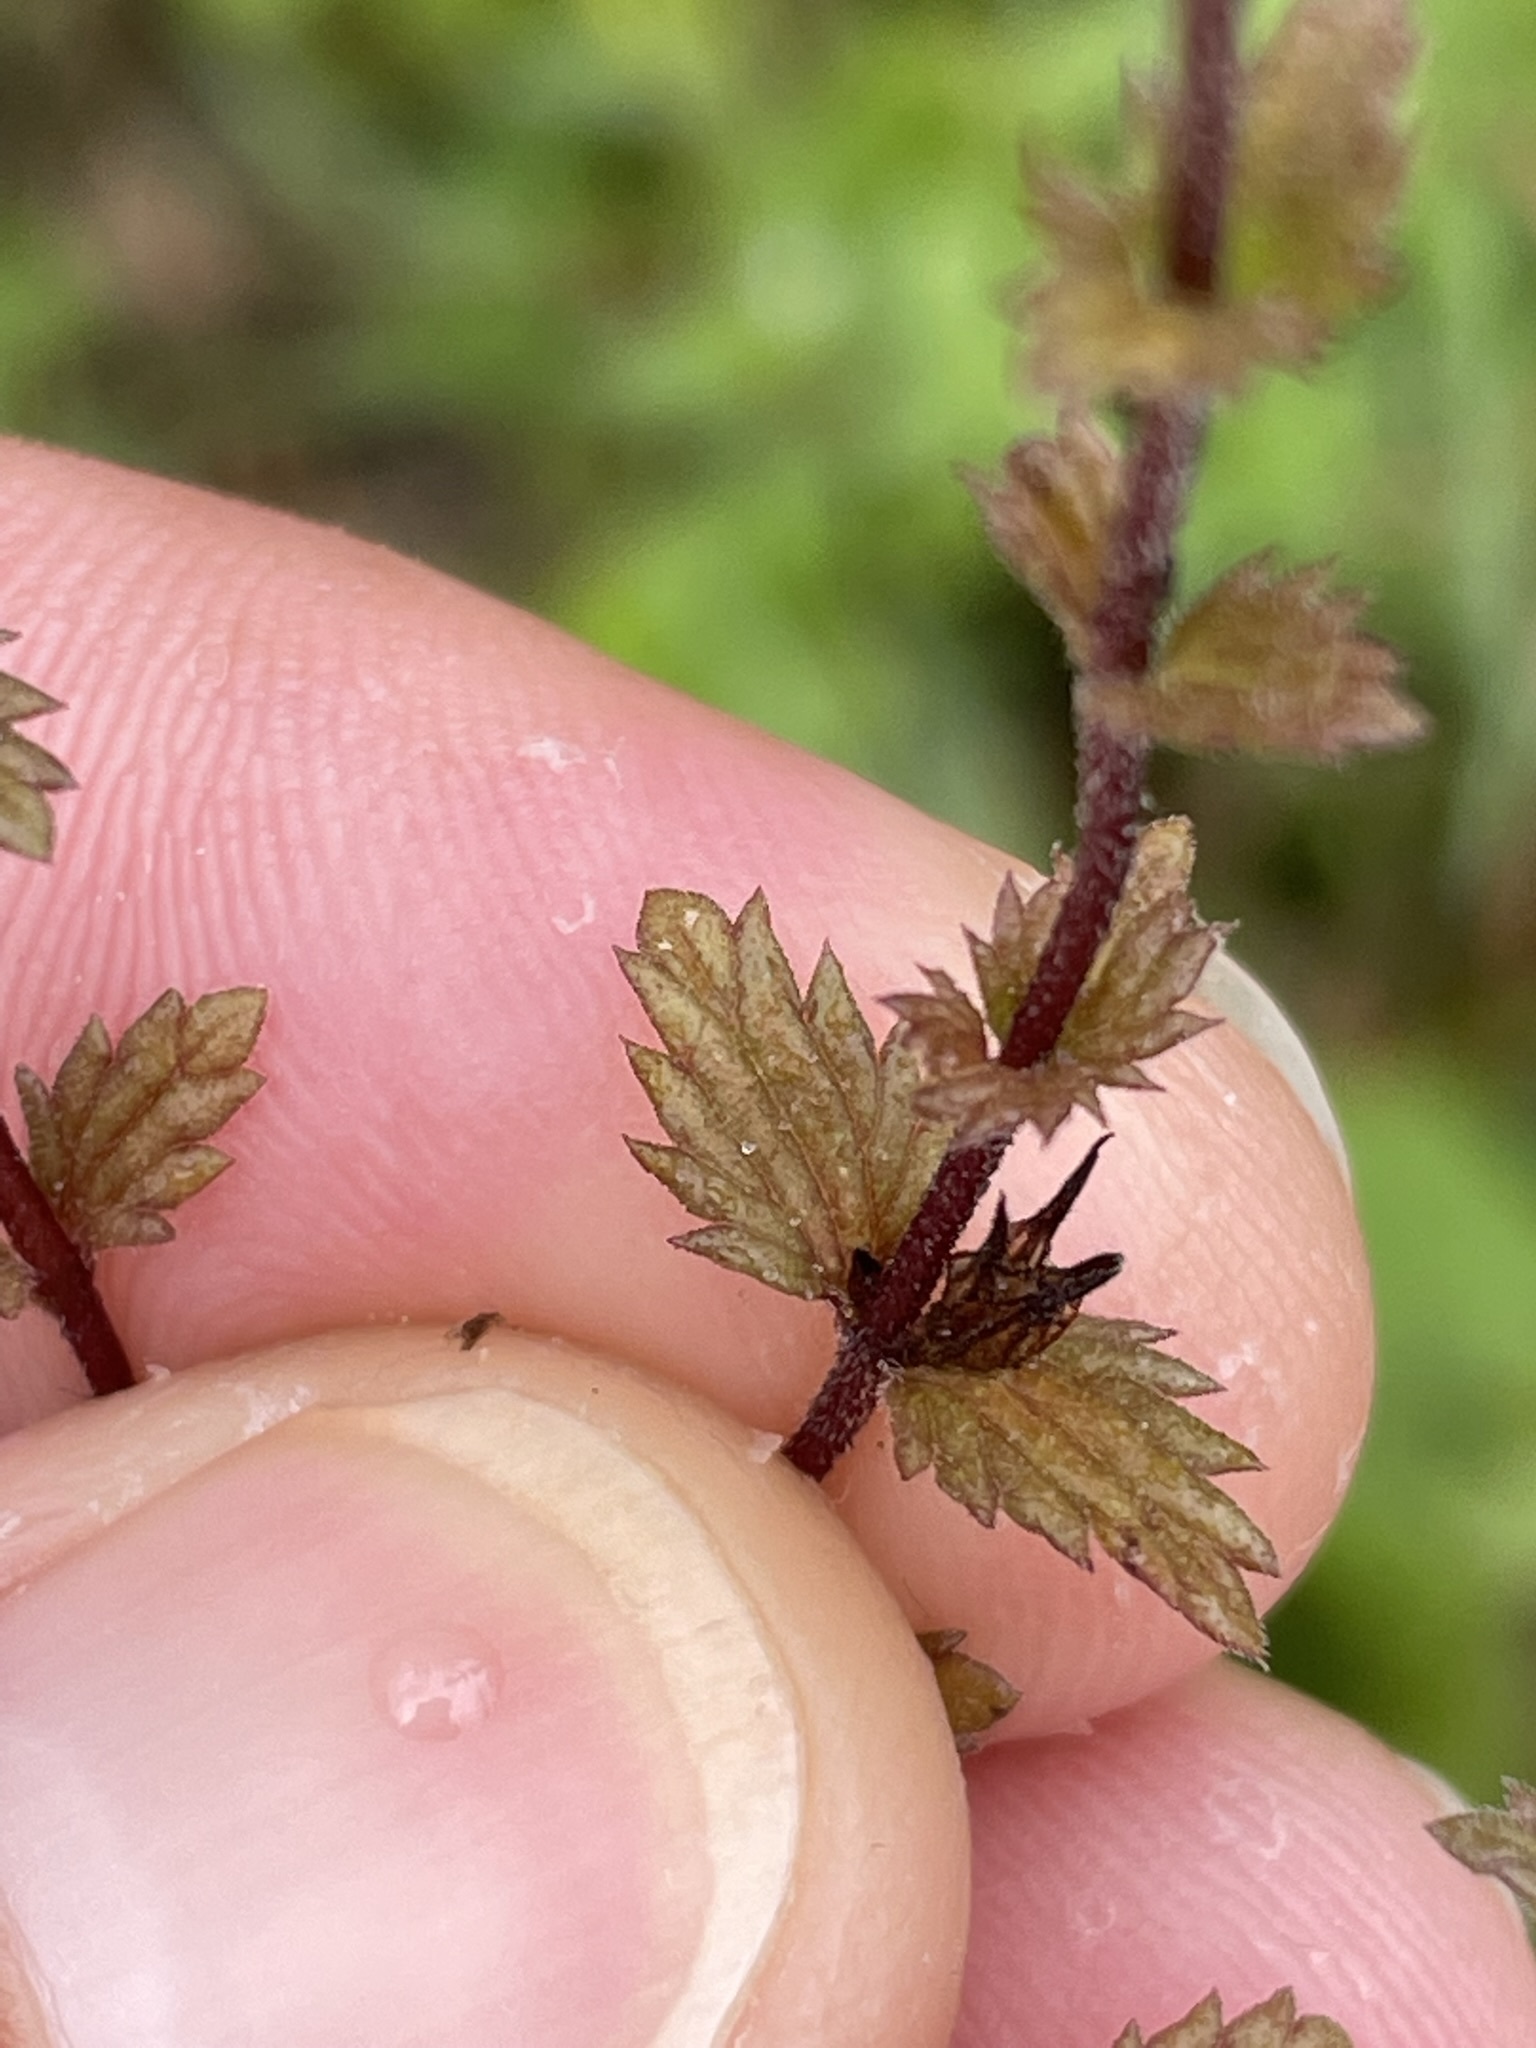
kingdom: Plantae
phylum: Tracheophyta
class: Magnoliopsida
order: Lamiales
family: Orobanchaceae
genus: Euphrasia
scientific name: Euphrasia officinalis
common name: Eyebright
